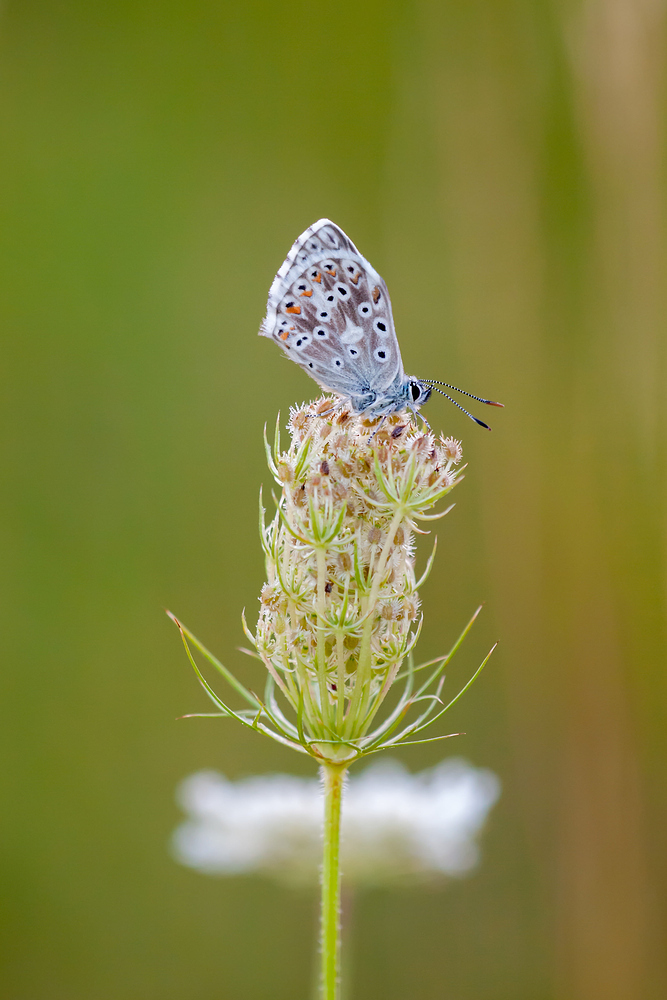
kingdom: Animalia
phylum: Arthropoda
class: Insecta
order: Lepidoptera
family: Lycaenidae
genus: Lysandra
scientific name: Lysandra coridon
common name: Chalkhill blue
